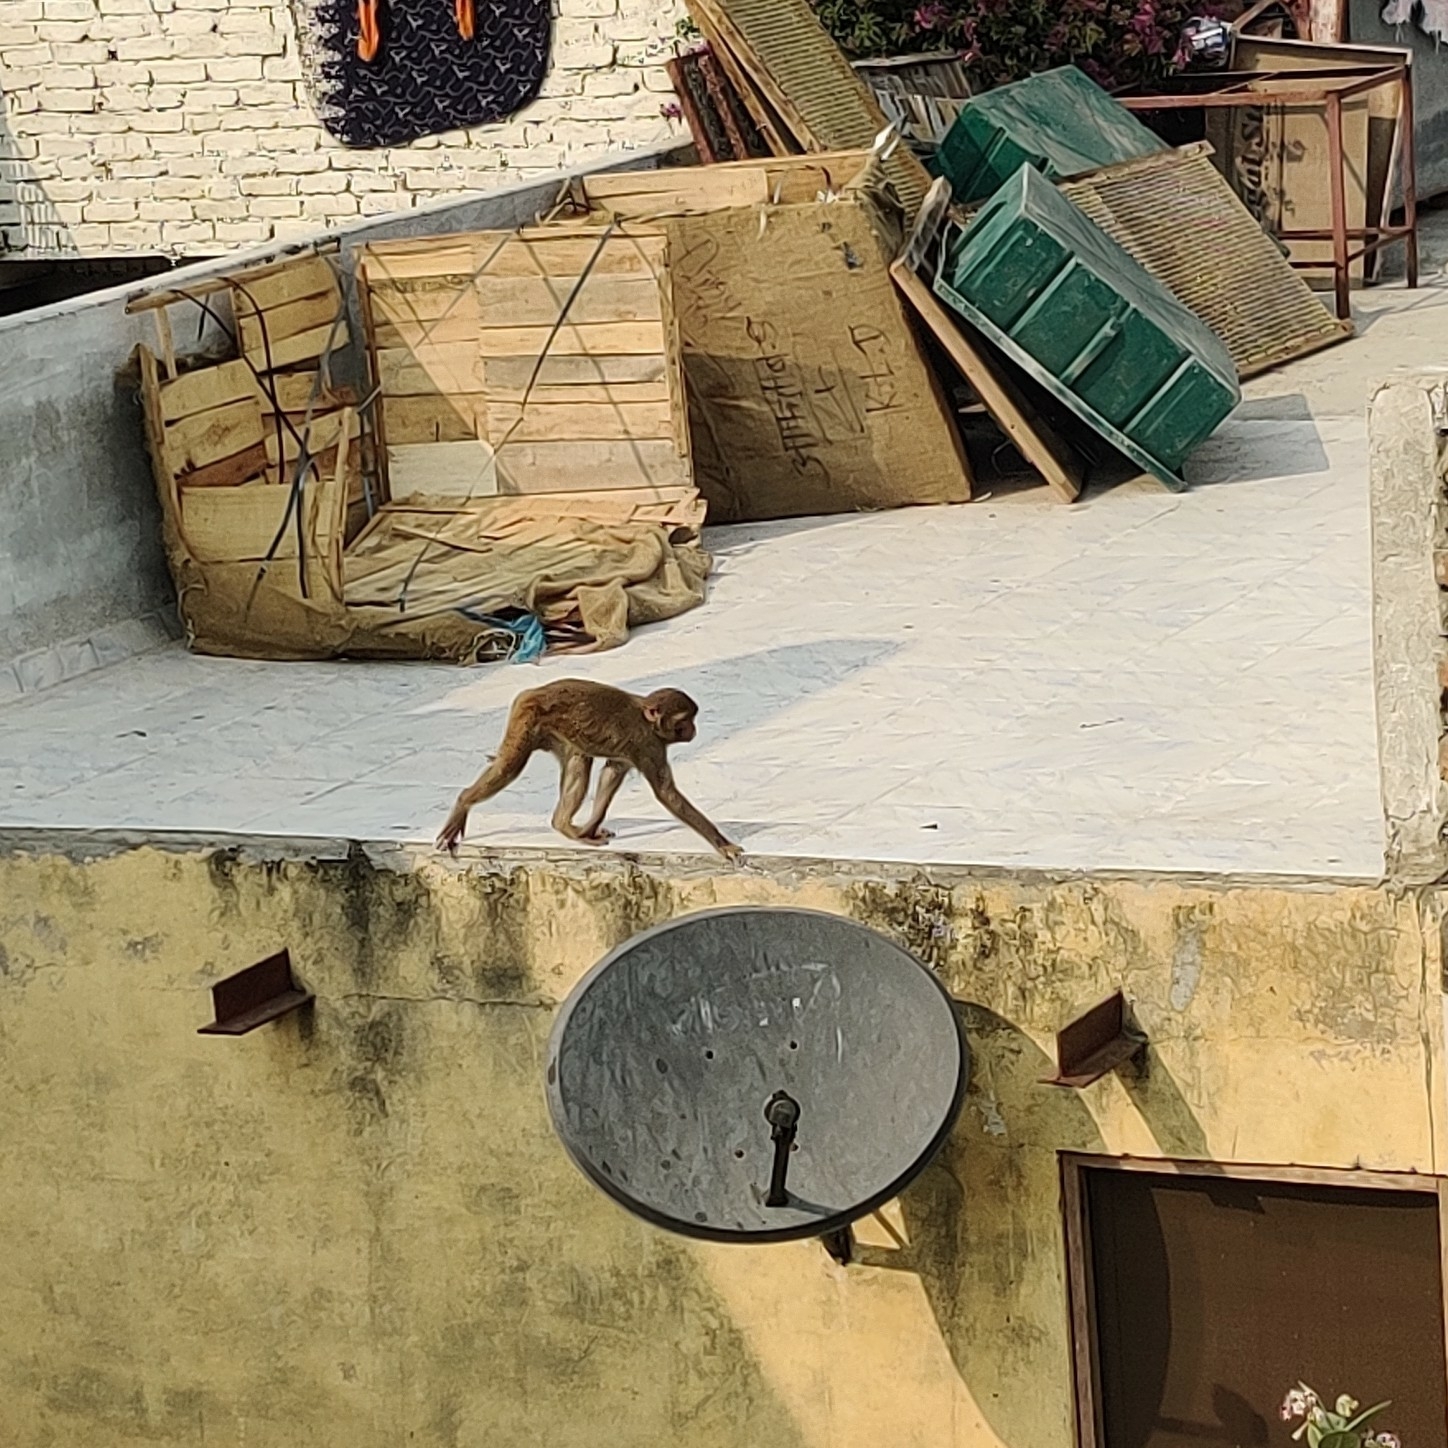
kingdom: Animalia
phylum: Chordata
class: Mammalia
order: Primates
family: Cercopithecidae
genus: Macaca
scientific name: Macaca mulatta
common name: Rhesus monkey
